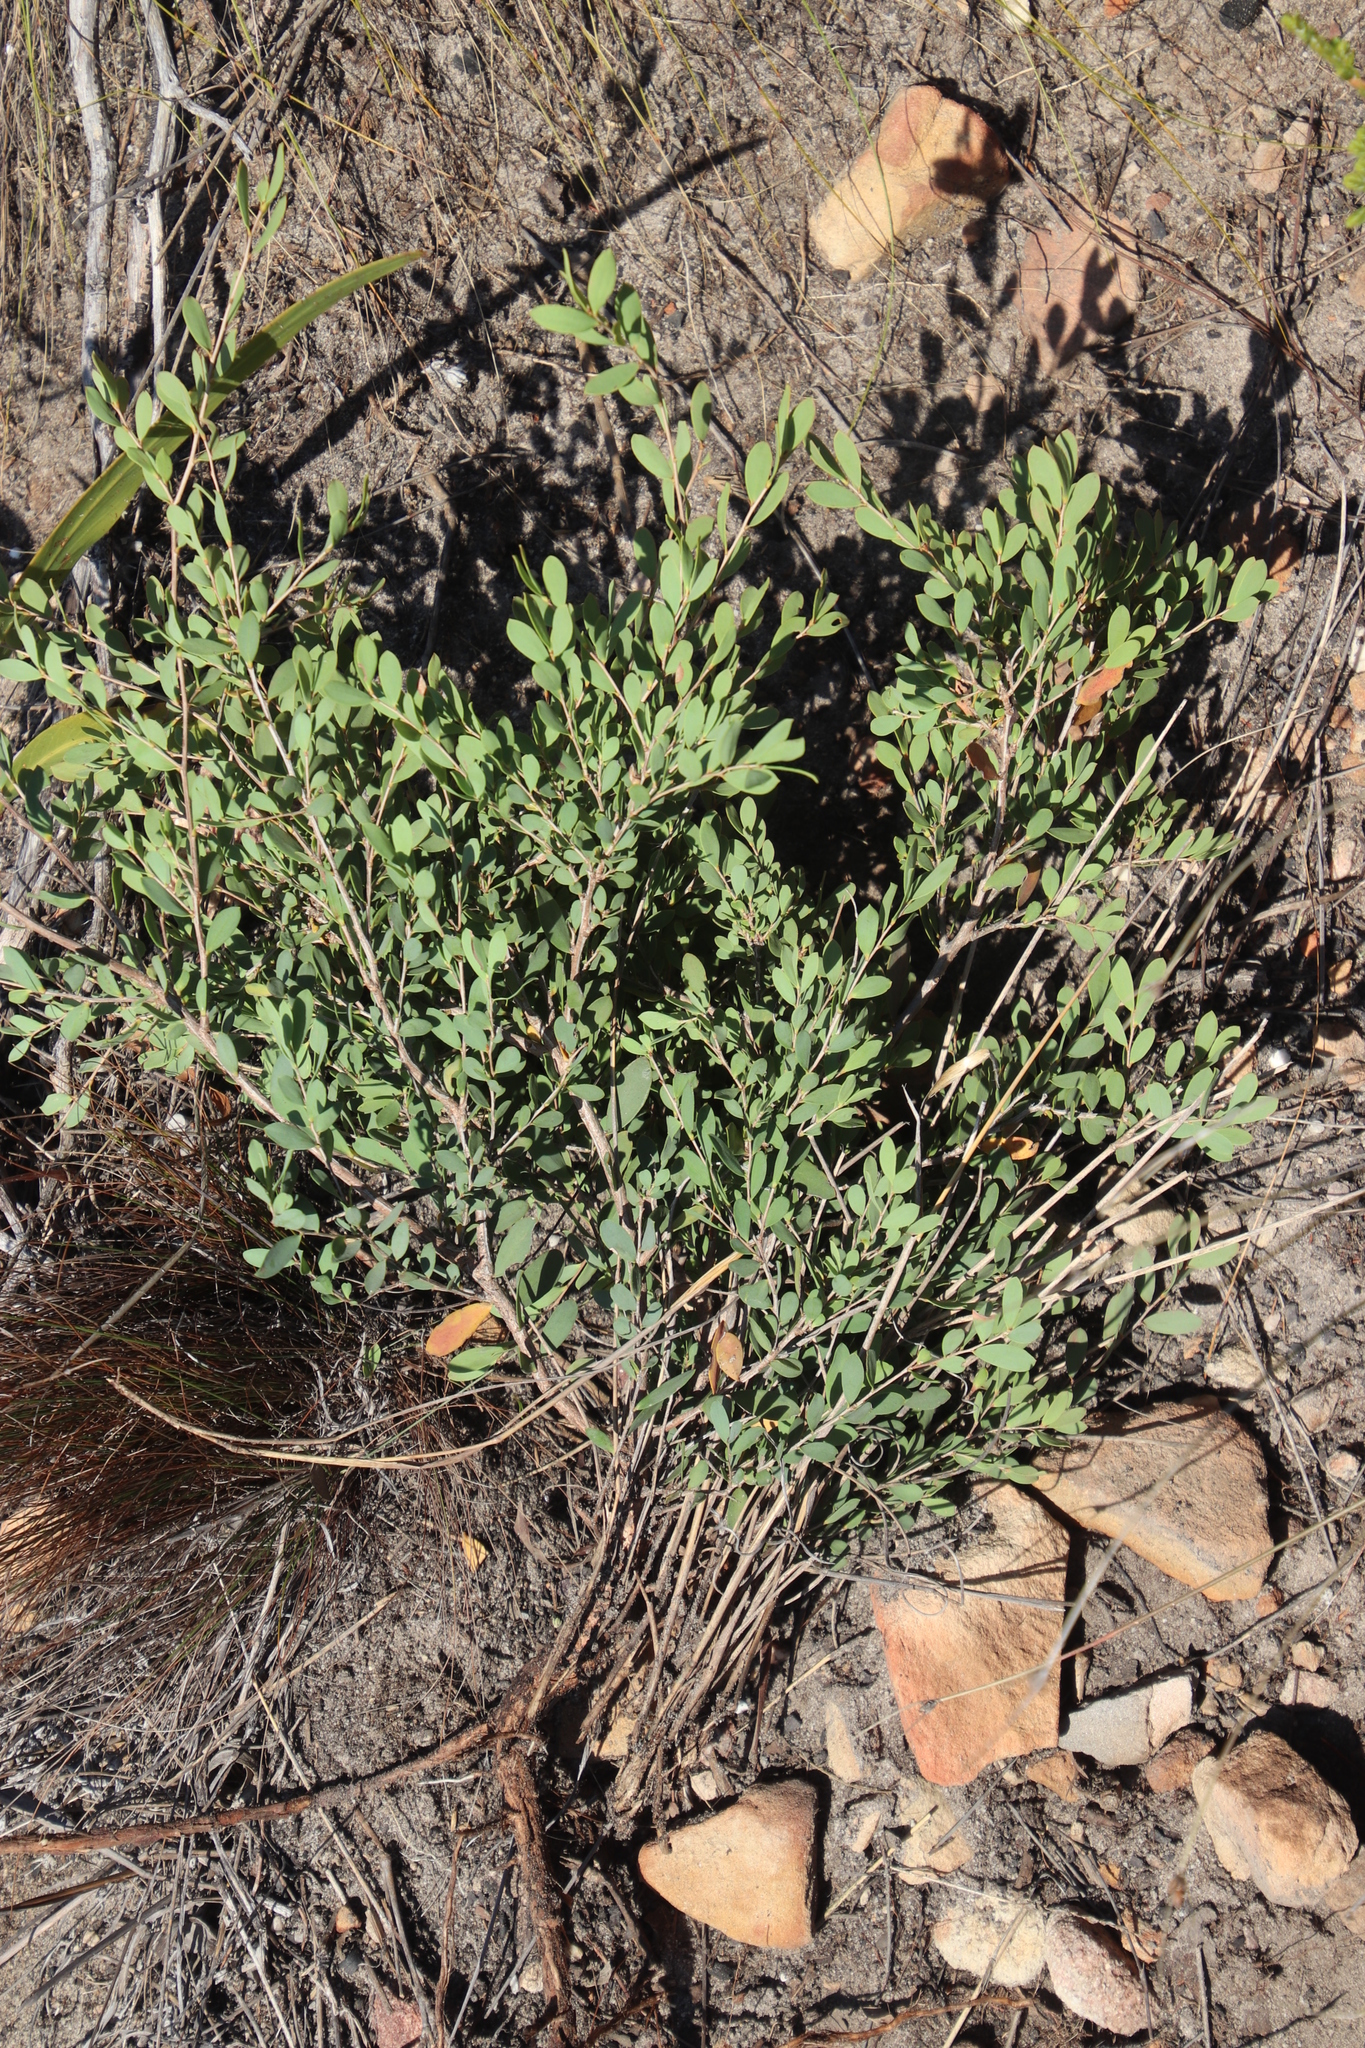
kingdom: Plantae
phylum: Tracheophyta
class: Magnoliopsida
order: Myrtales
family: Myrtaceae
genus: Leptospermum
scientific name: Leptospermum laevigatum
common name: Australian teatree
